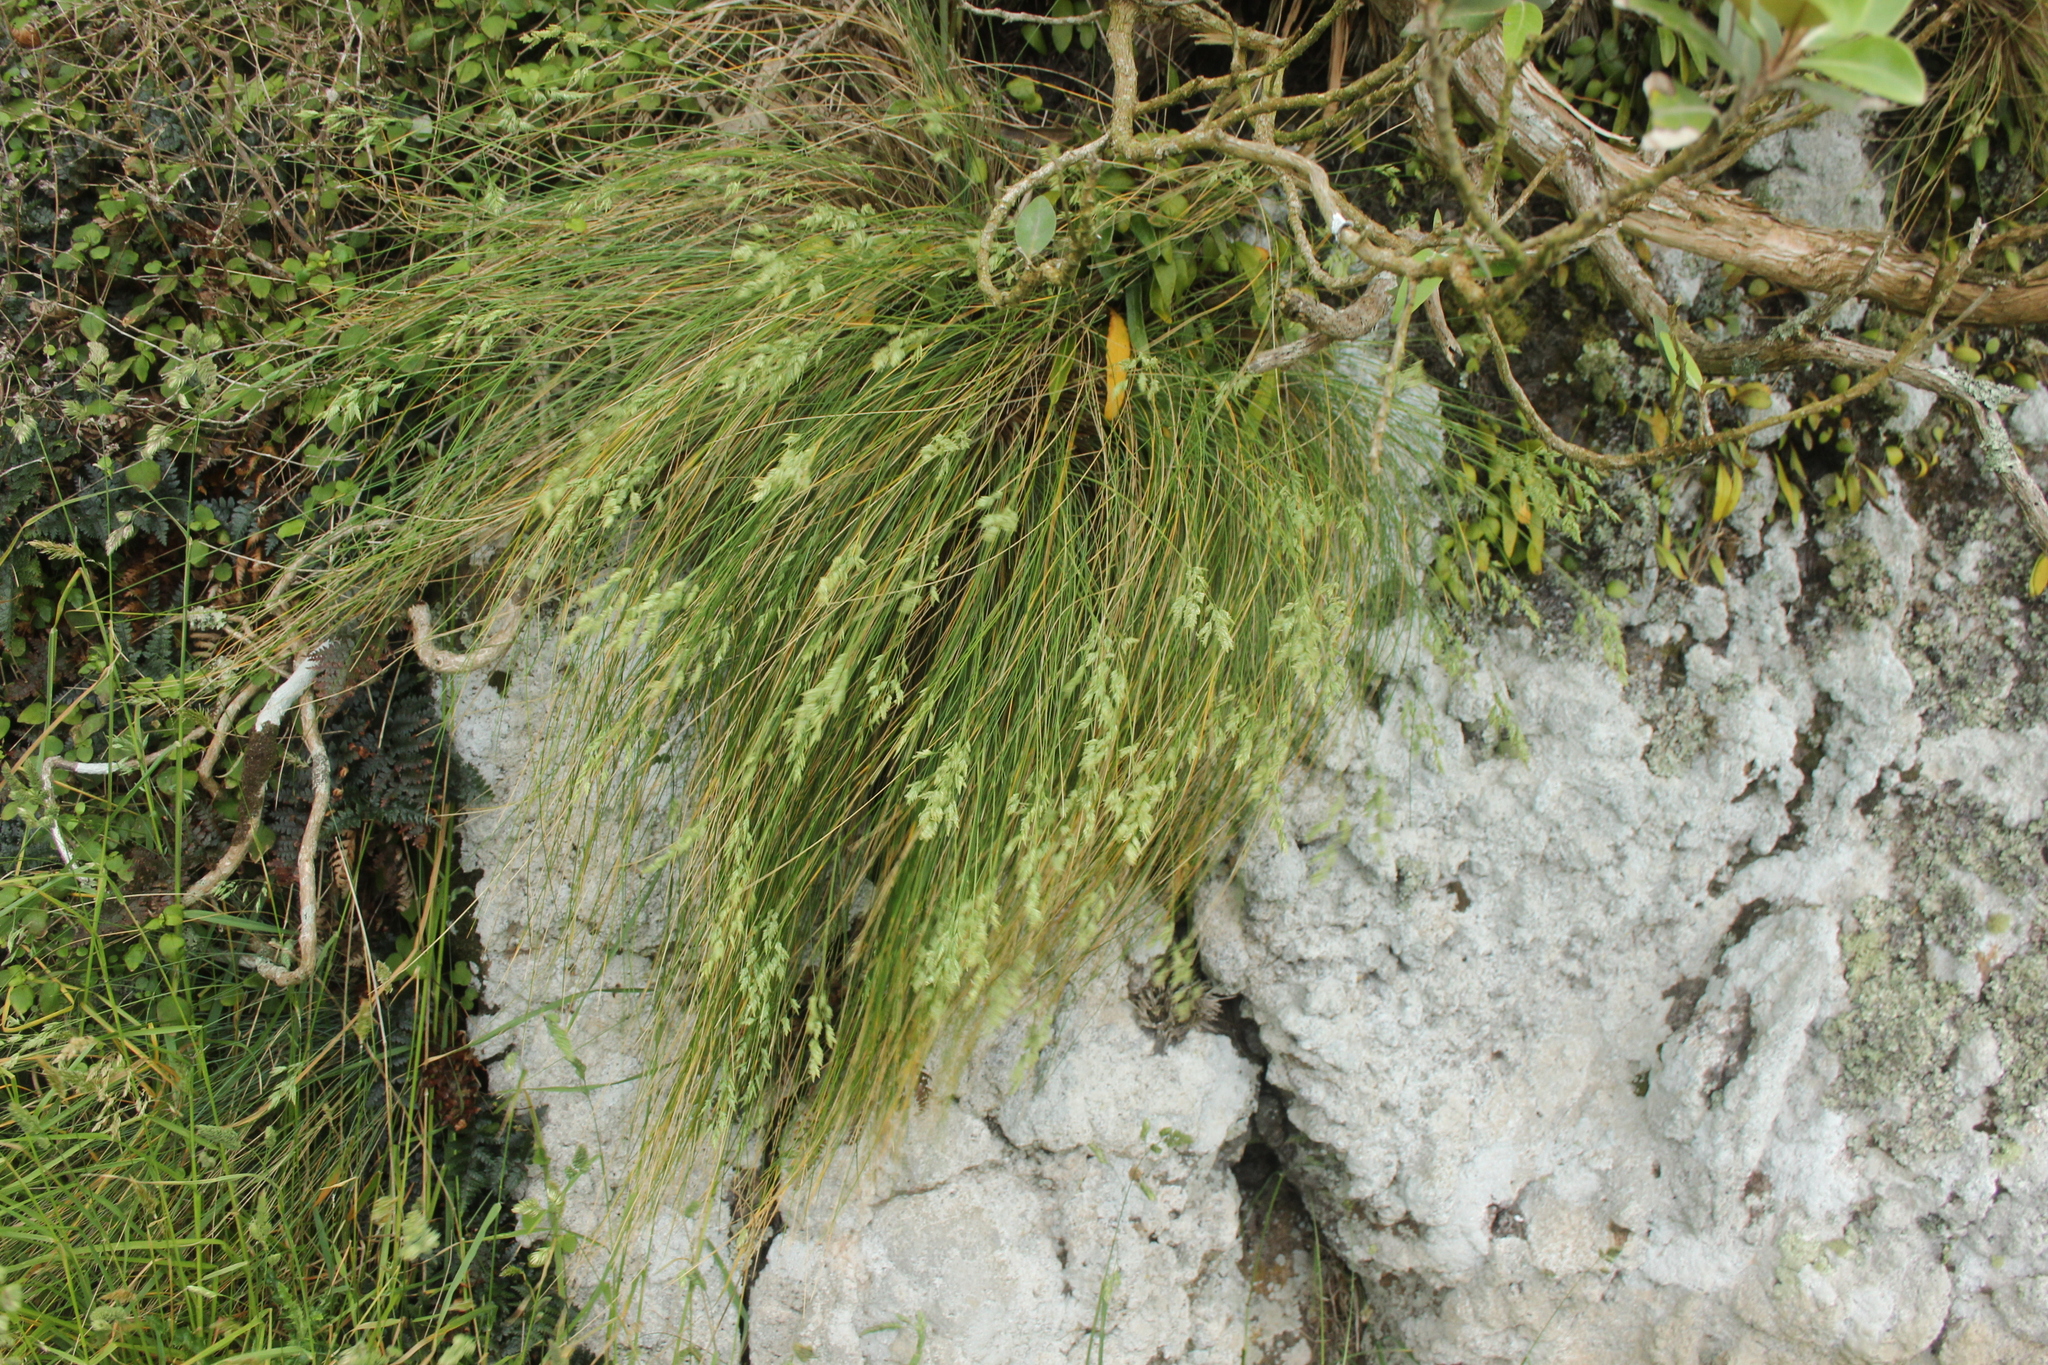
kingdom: Plantae
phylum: Tracheophyta
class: Liliopsida
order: Poales
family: Poaceae
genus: Poa
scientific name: Poa astonii
